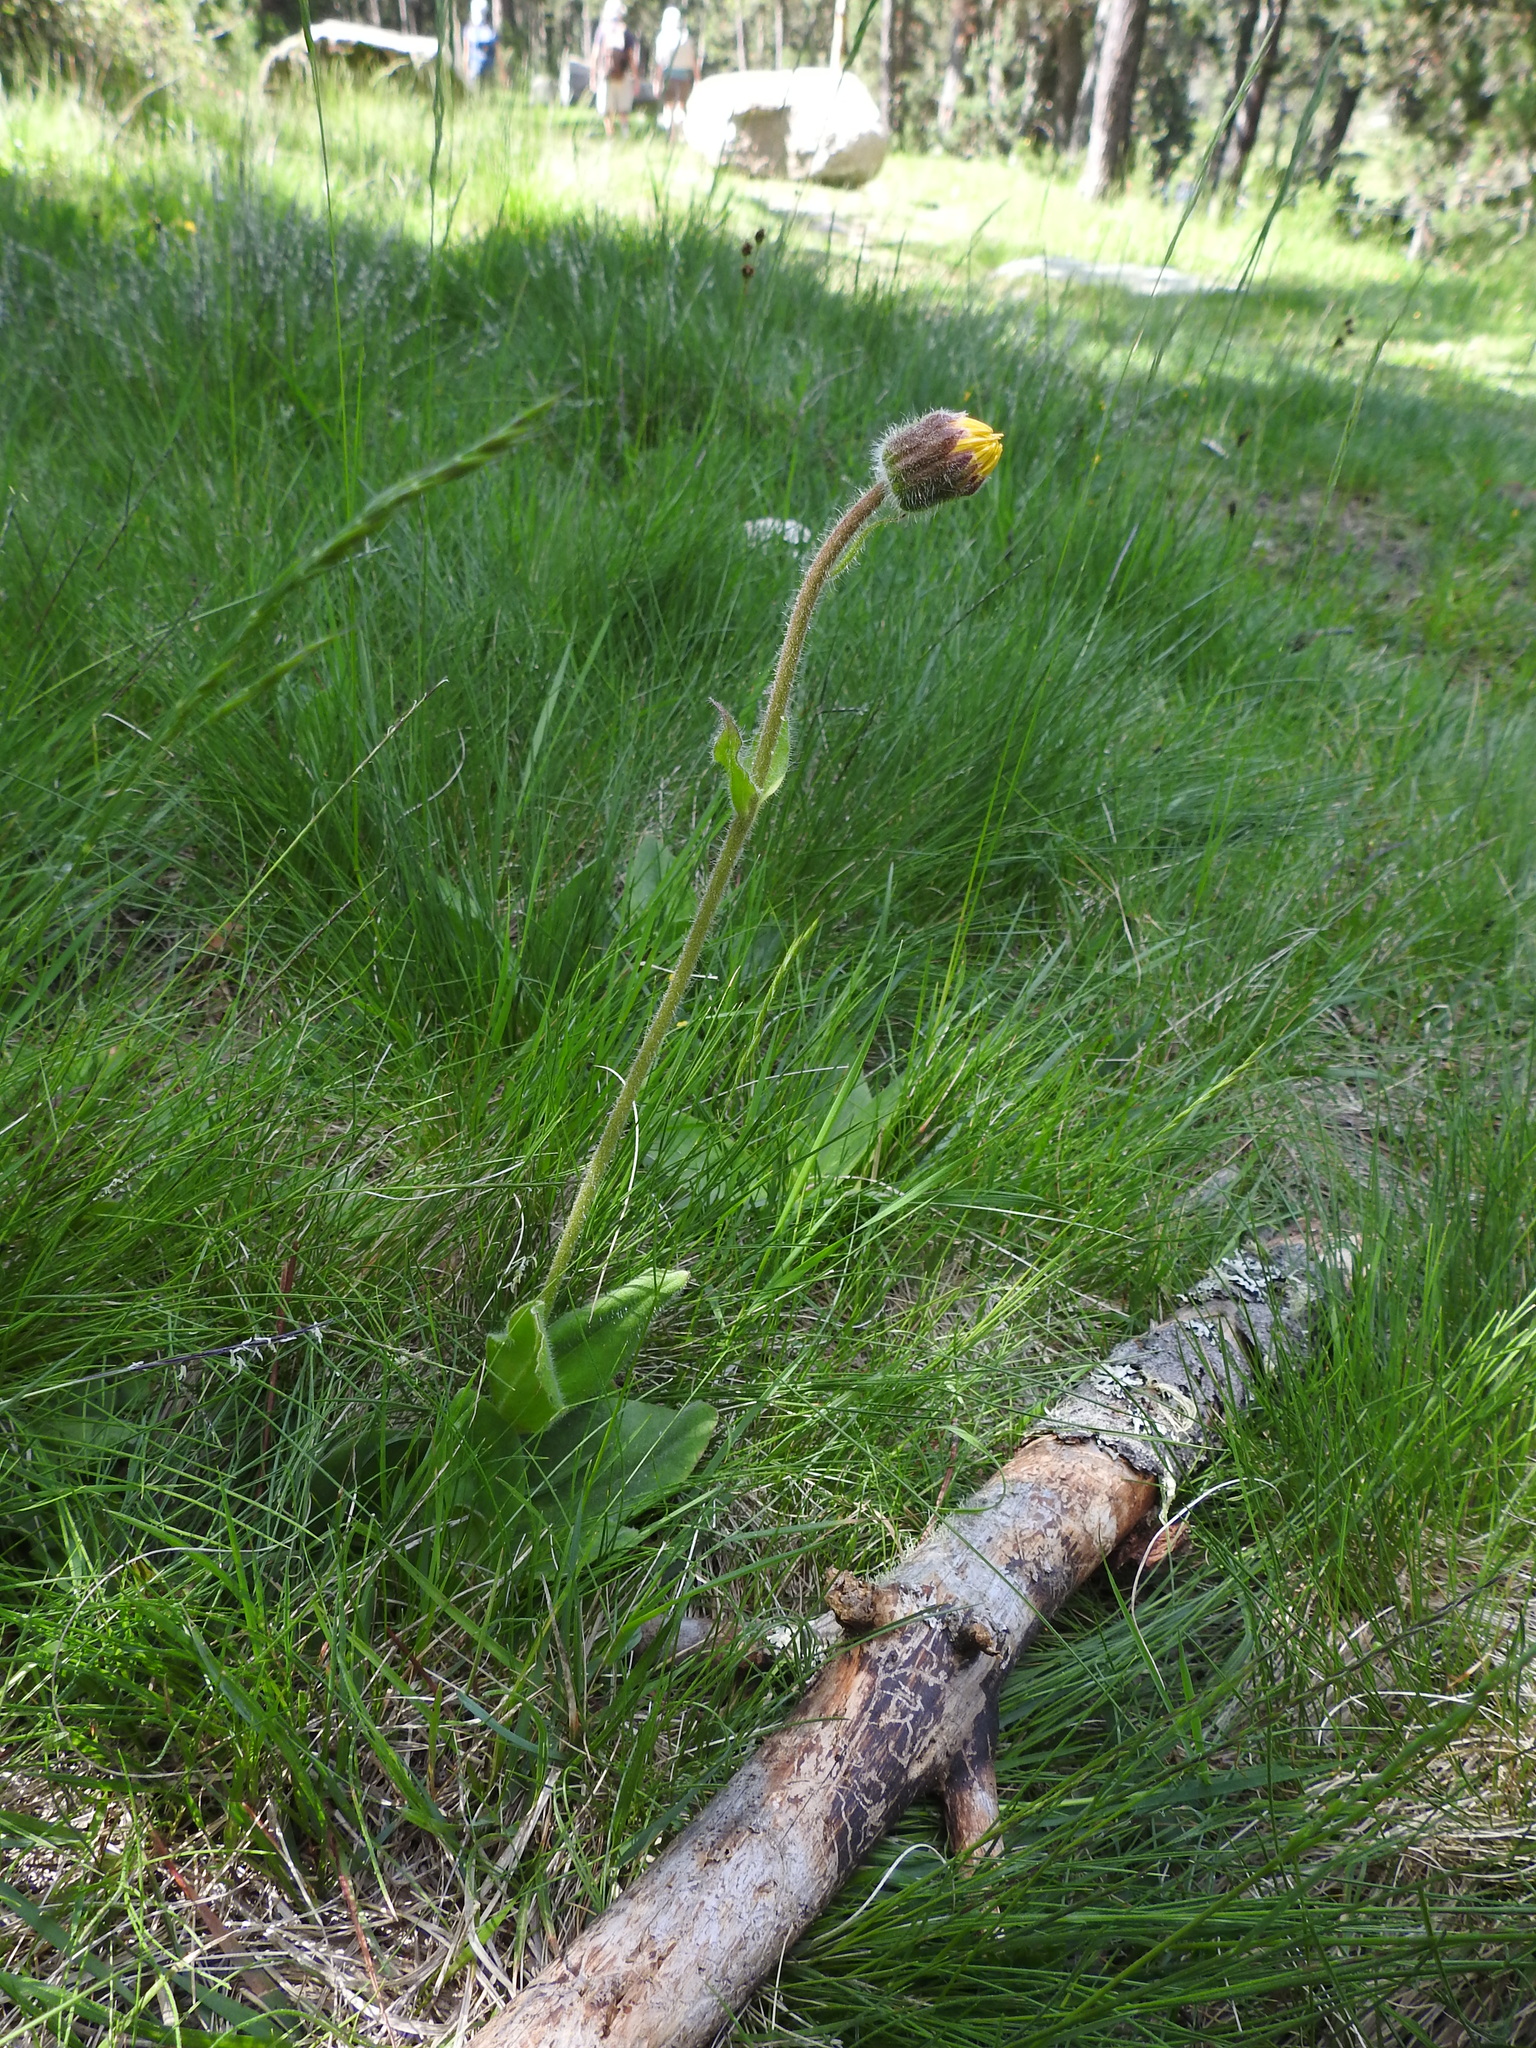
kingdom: Plantae
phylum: Tracheophyta
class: Magnoliopsida
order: Asterales
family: Asteraceae
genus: Arnica
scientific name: Arnica montana
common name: Leopard's bane
